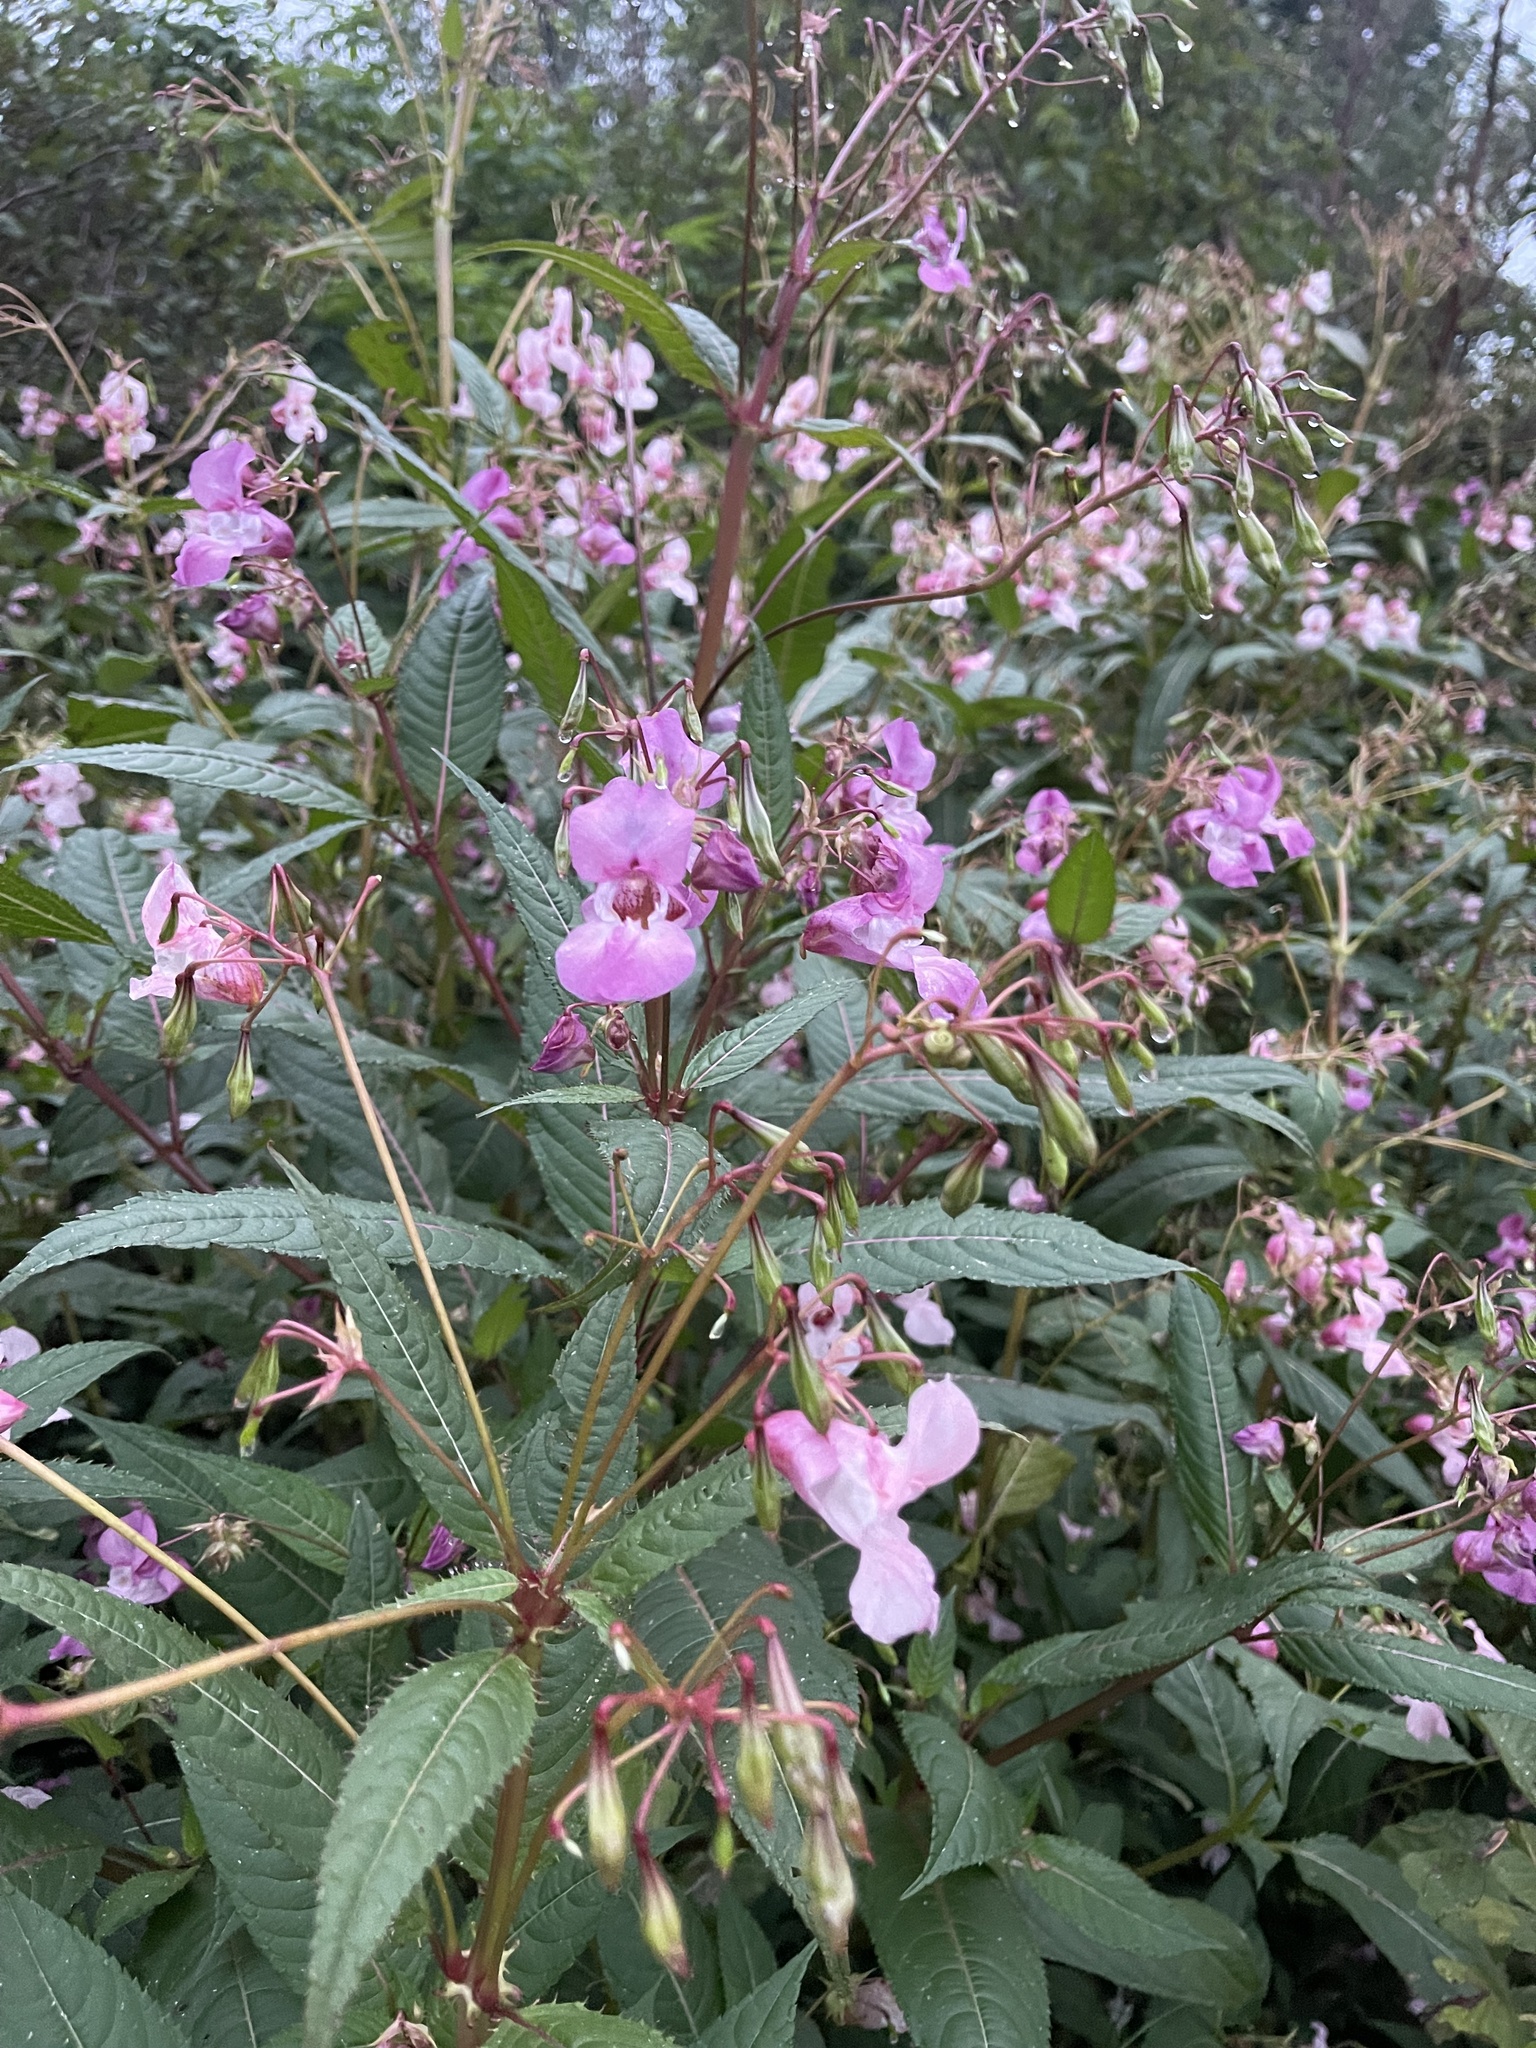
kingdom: Plantae
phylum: Tracheophyta
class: Magnoliopsida
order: Ericales
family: Balsaminaceae
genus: Impatiens
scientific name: Impatiens glandulifera
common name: Himalayan balsam
